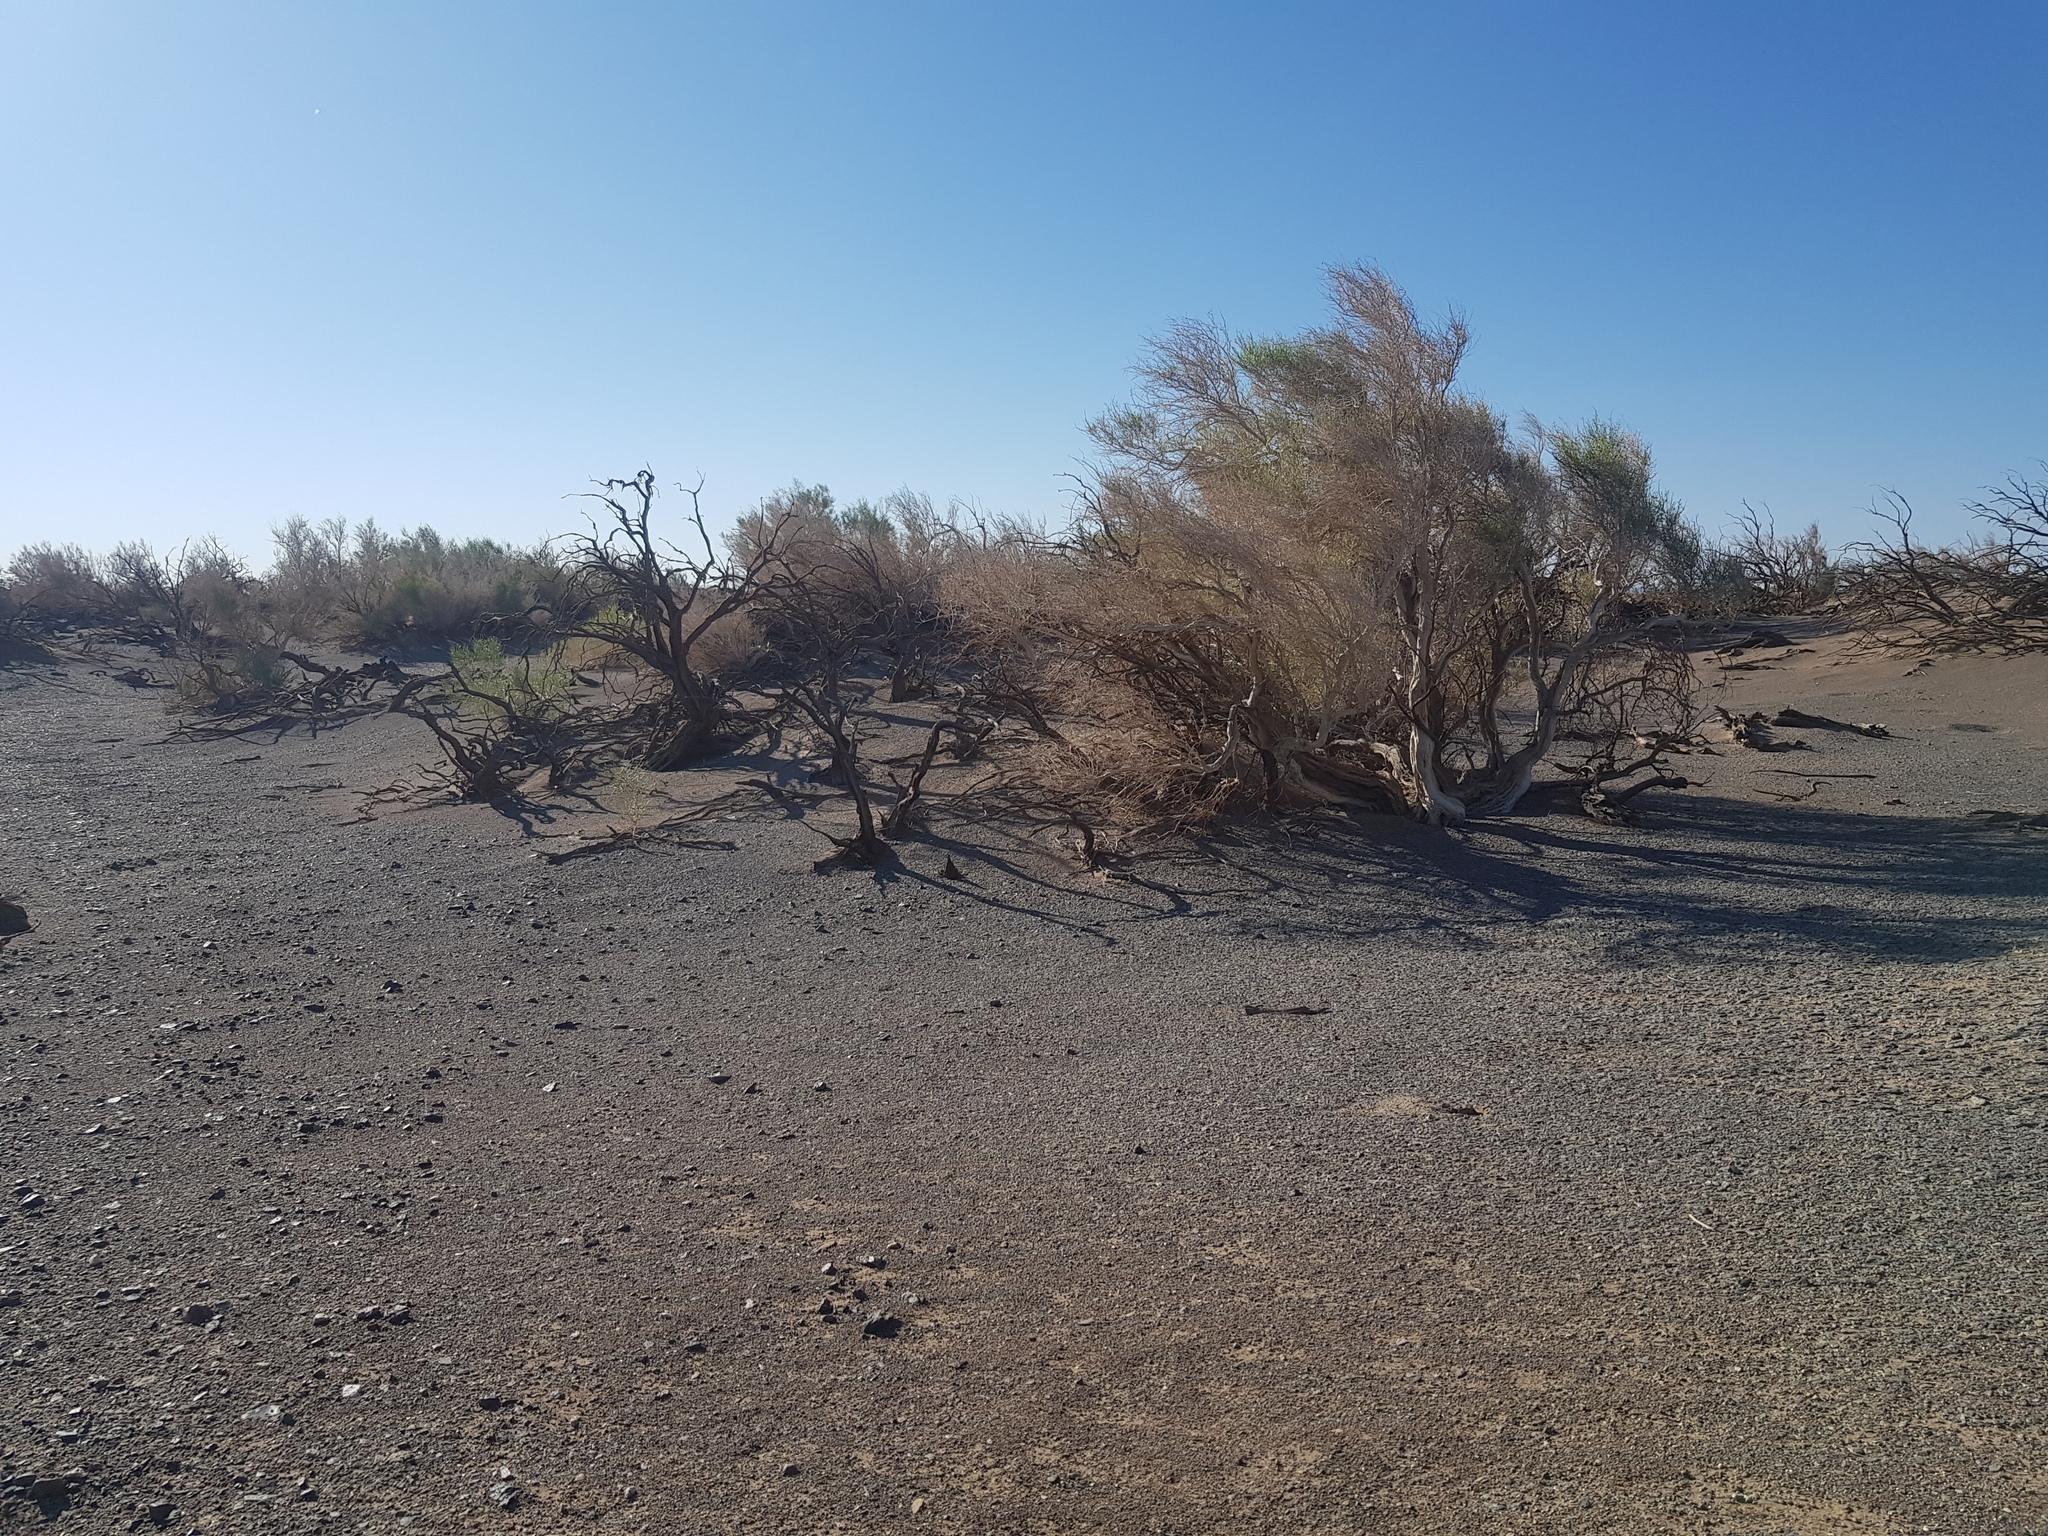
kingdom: Plantae
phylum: Tracheophyta
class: Magnoliopsida
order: Caryophyllales
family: Amaranthaceae
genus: Haloxylon
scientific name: Haloxylon ammodendron
